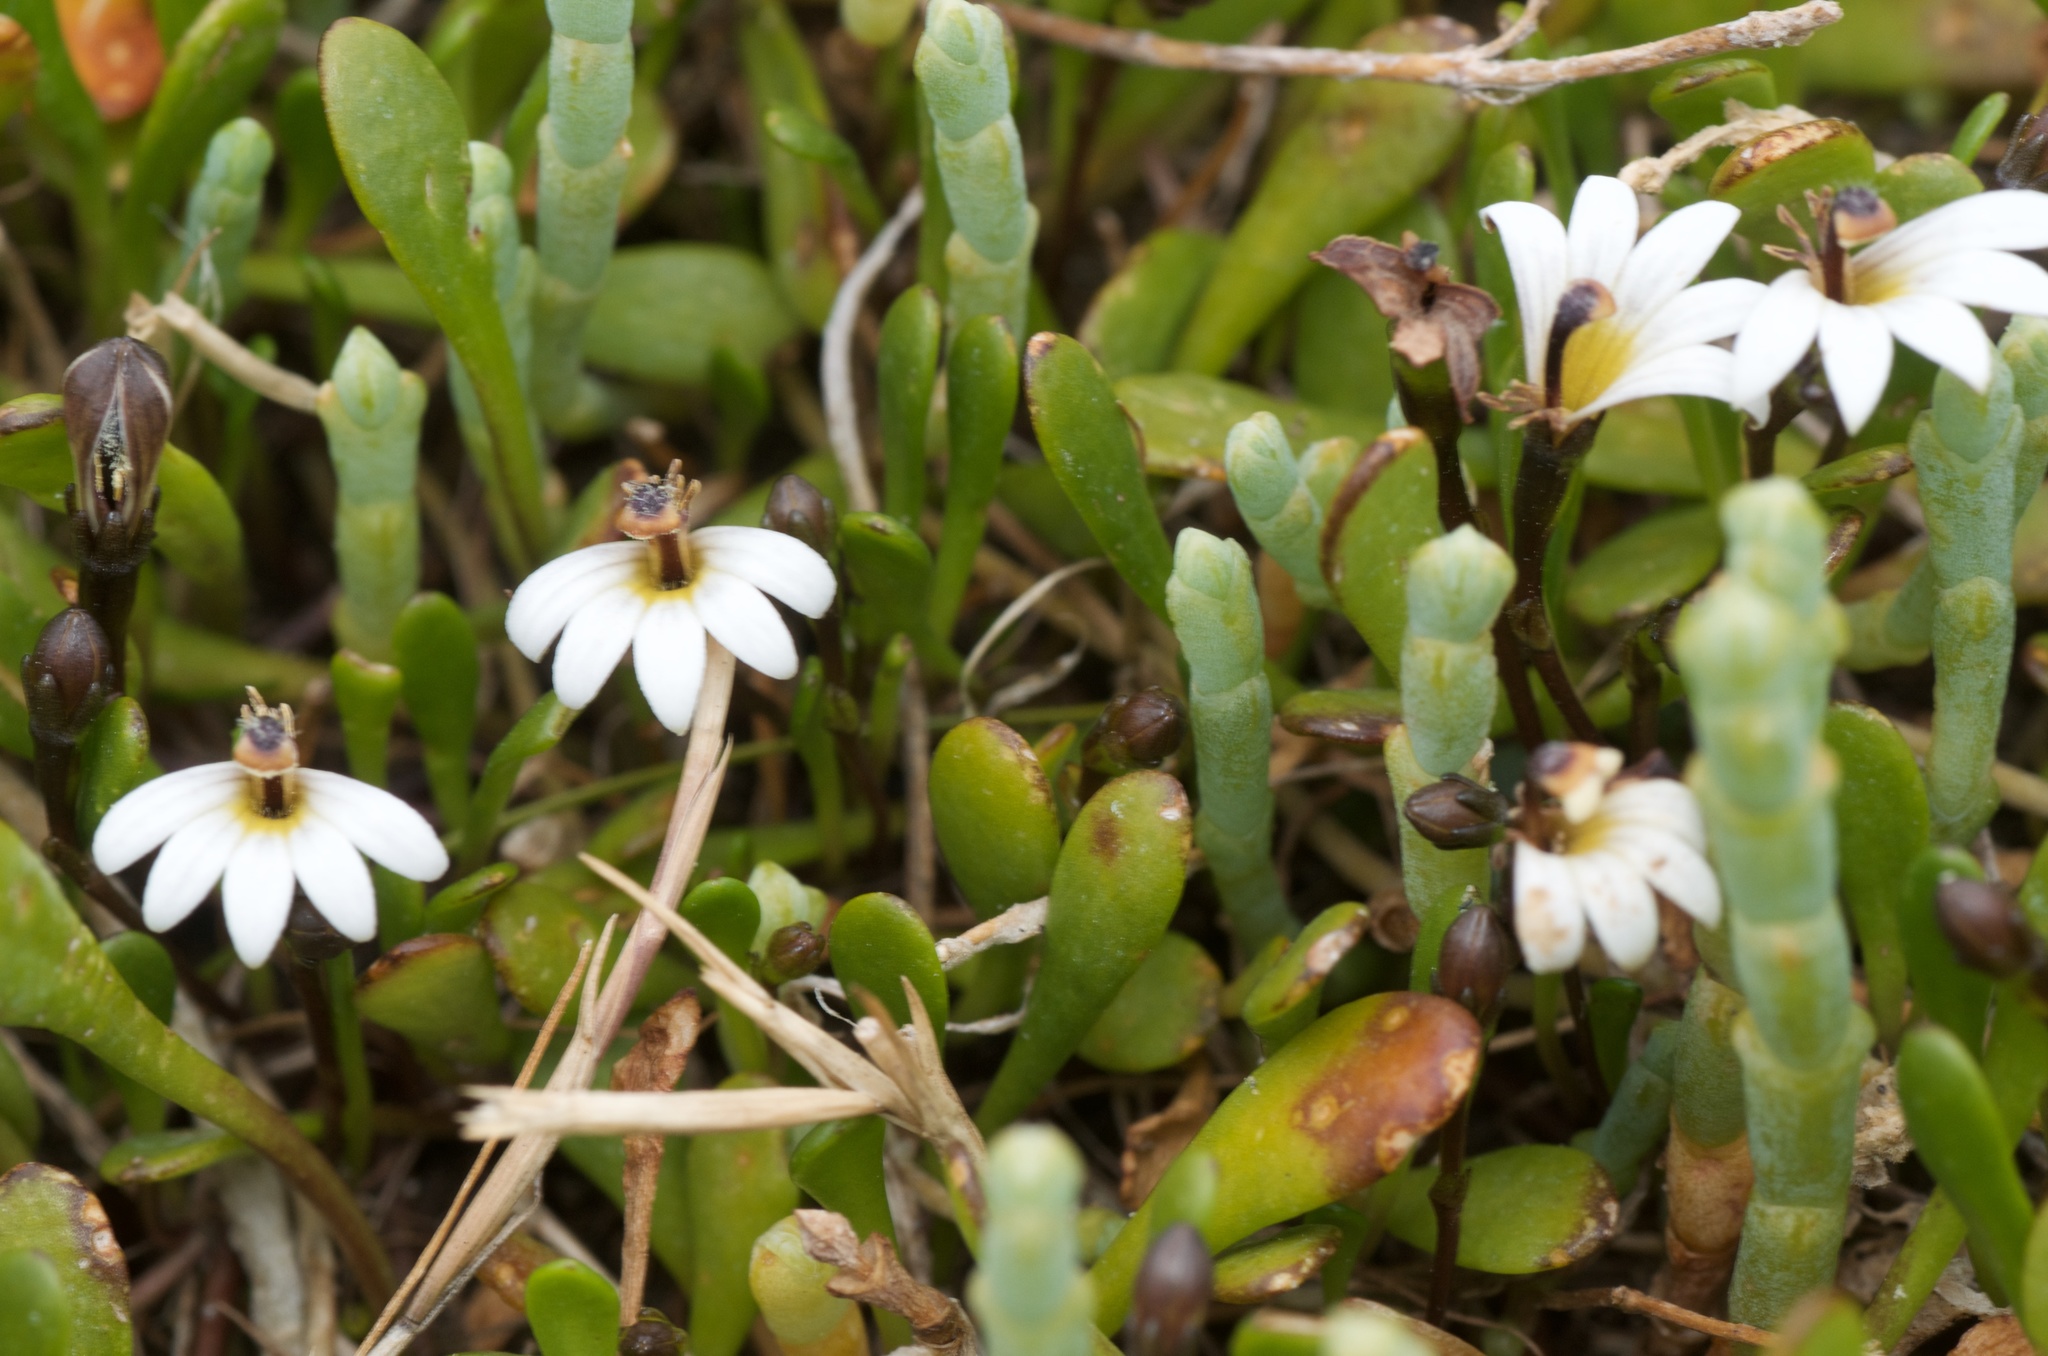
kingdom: Plantae
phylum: Tracheophyta
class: Magnoliopsida
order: Asterales
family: Goodeniaceae
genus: Goodenia
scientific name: Goodenia radicans
